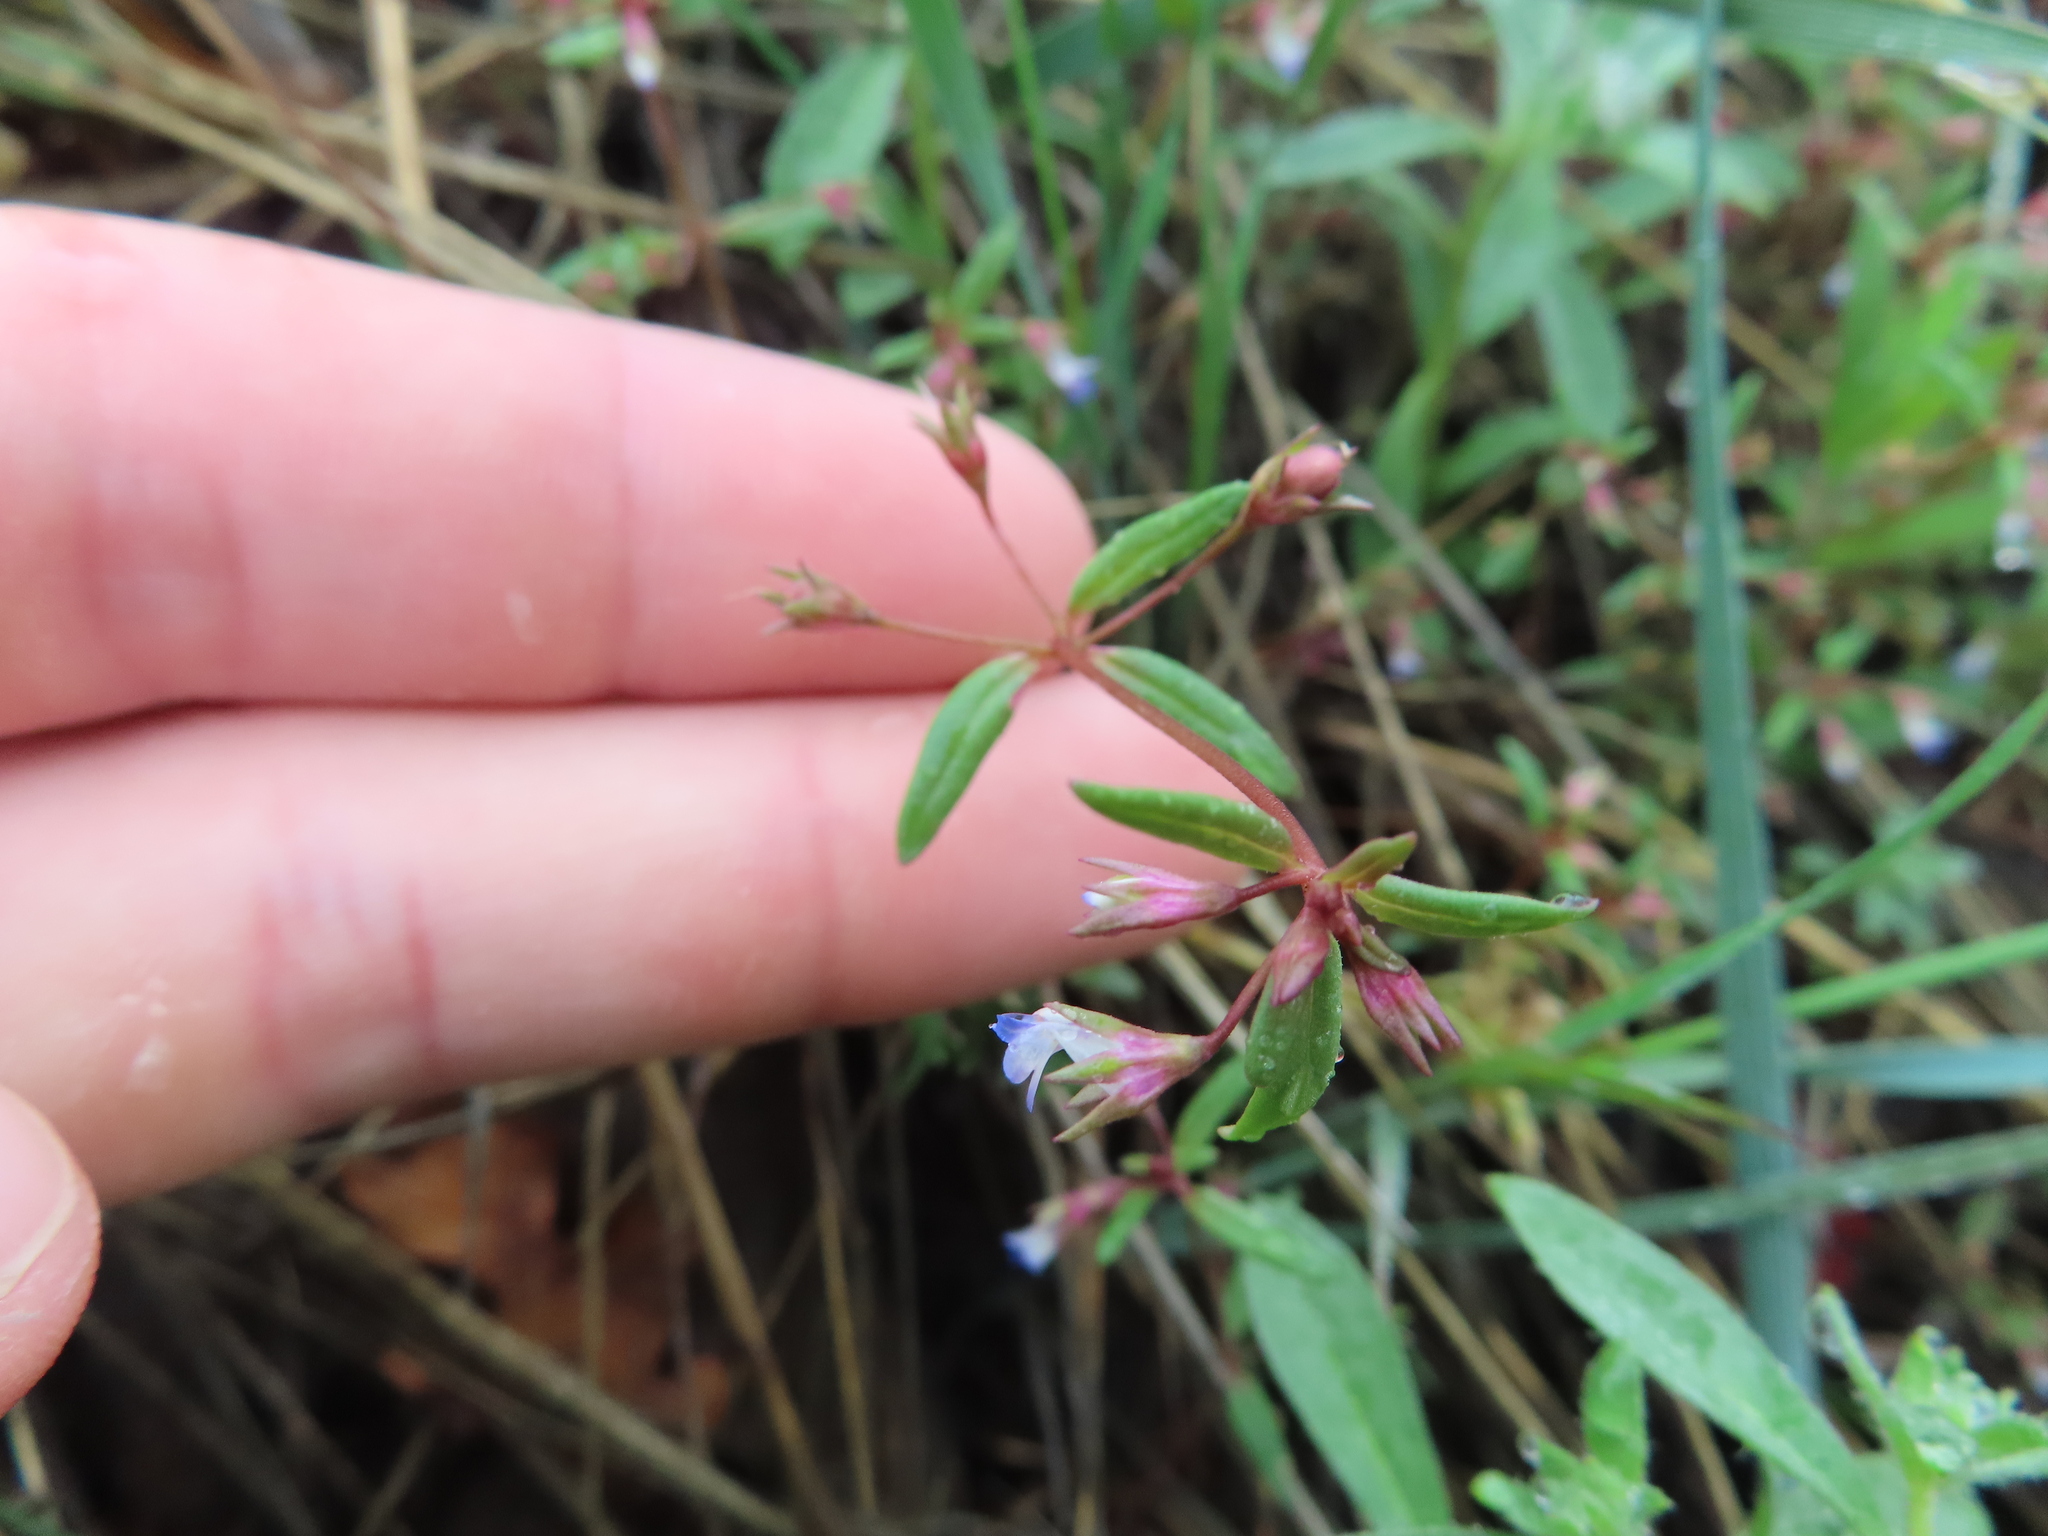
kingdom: Plantae
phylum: Tracheophyta
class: Magnoliopsida
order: Lamiales
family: Plantaginaceae
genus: Collinsia
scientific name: Collinsia parviflora
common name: Blue-lips
